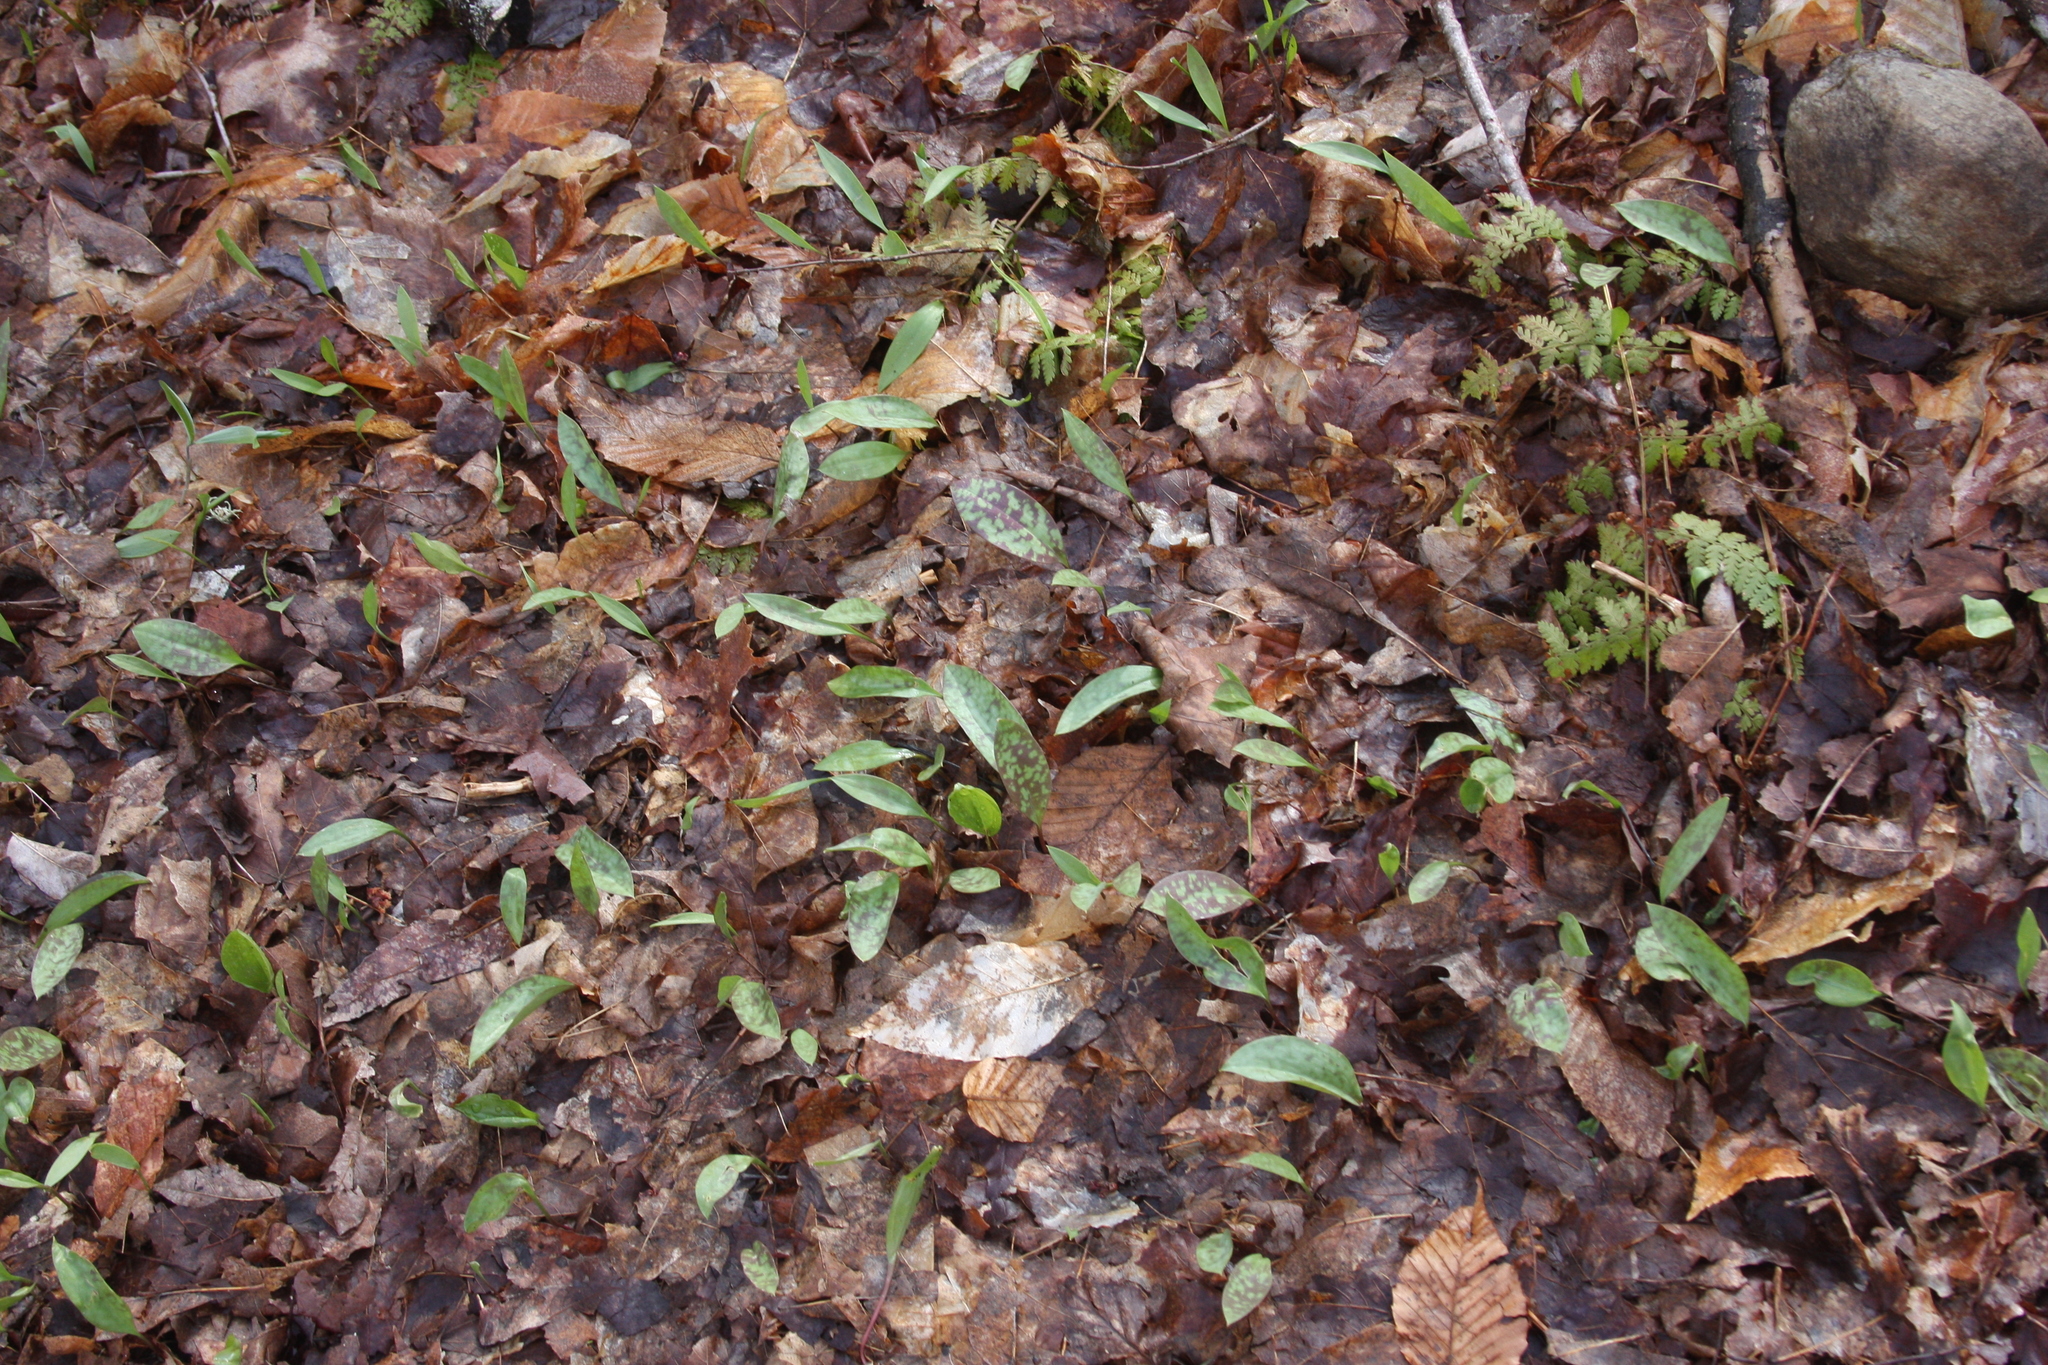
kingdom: Plantae
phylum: Tracheophyta
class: Liliopsida
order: Liliales
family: Liliaceae
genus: Erythronium
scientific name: Erythronium americanum
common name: Yellow adder's-tongue
